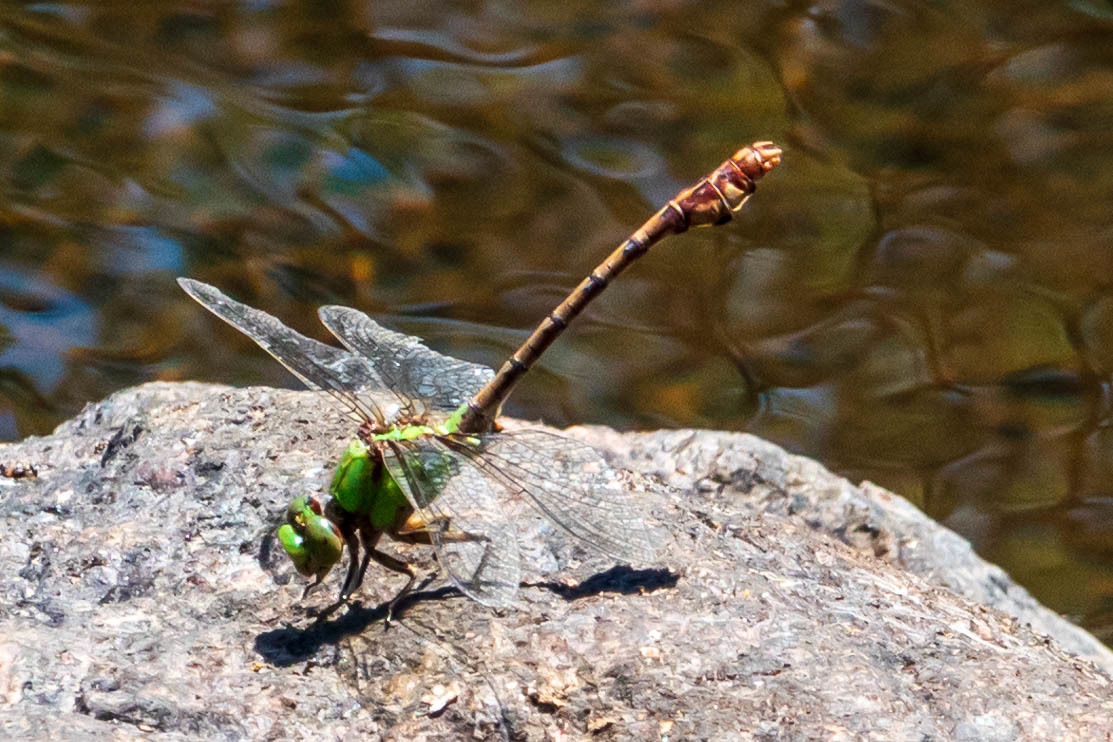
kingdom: Animalia
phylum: Arthropoda
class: Insecta
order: Odonata
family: Gomphidae
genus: Ophiogomphus
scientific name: Ophiogomphus rupinsulensis
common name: Rusty snaketail
